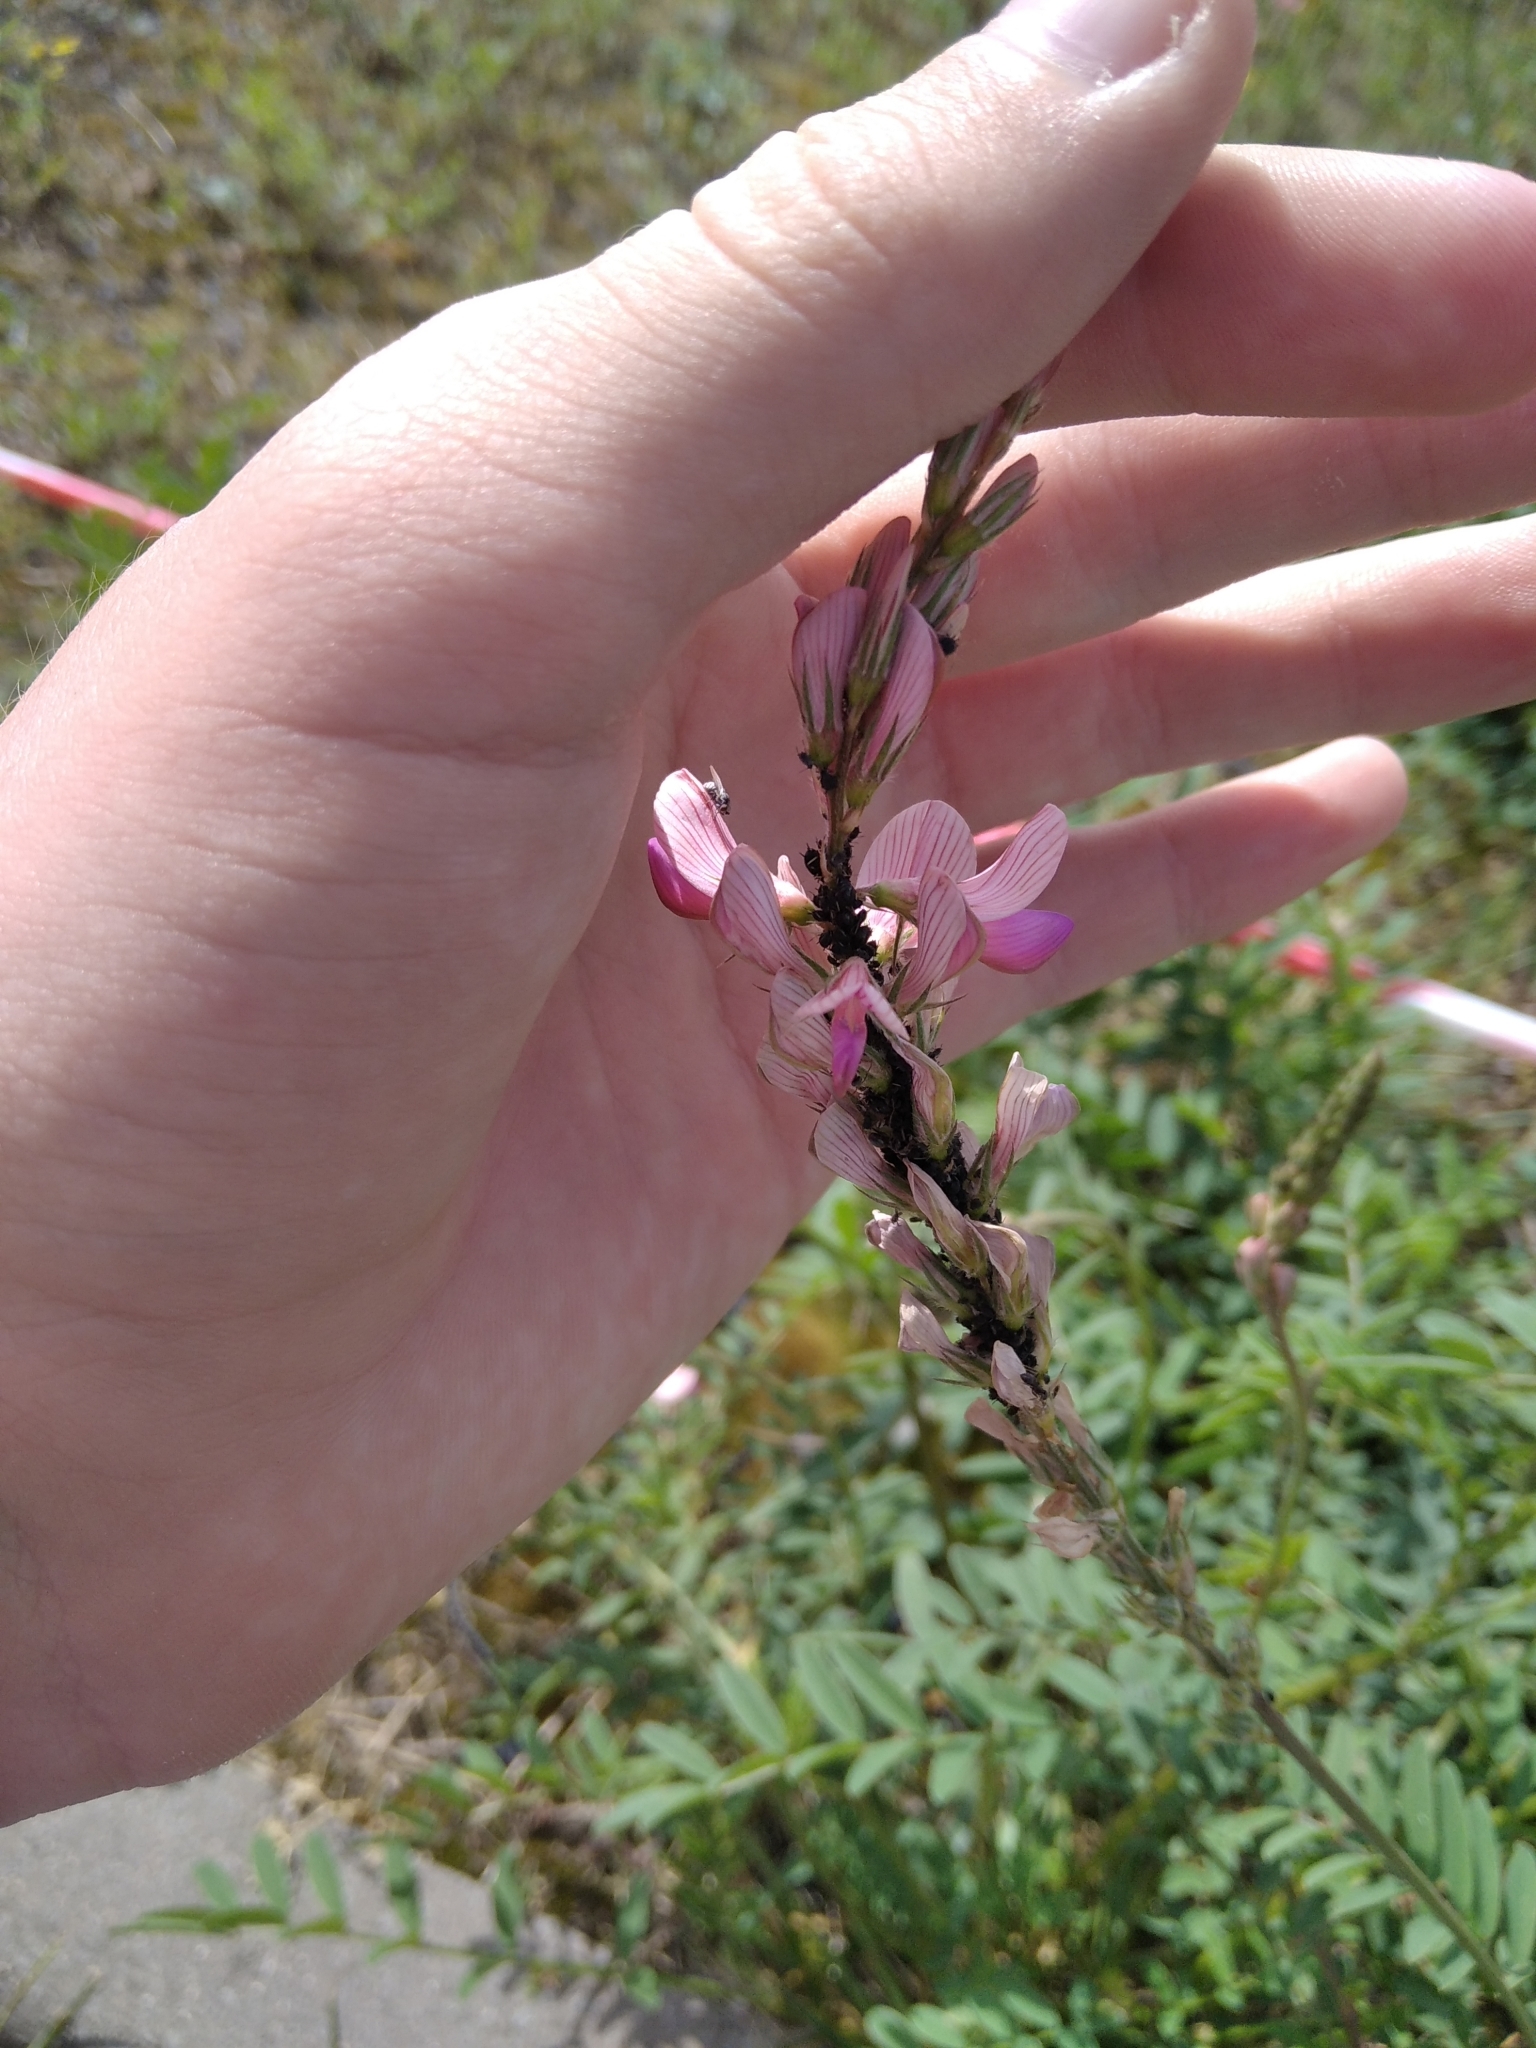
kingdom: Plantae
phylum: Tracheophyta
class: Magnoliopsida
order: Fabales
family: Fabaceae
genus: Onobrychis
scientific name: Onobrychis viciifolia
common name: Sainfoin
